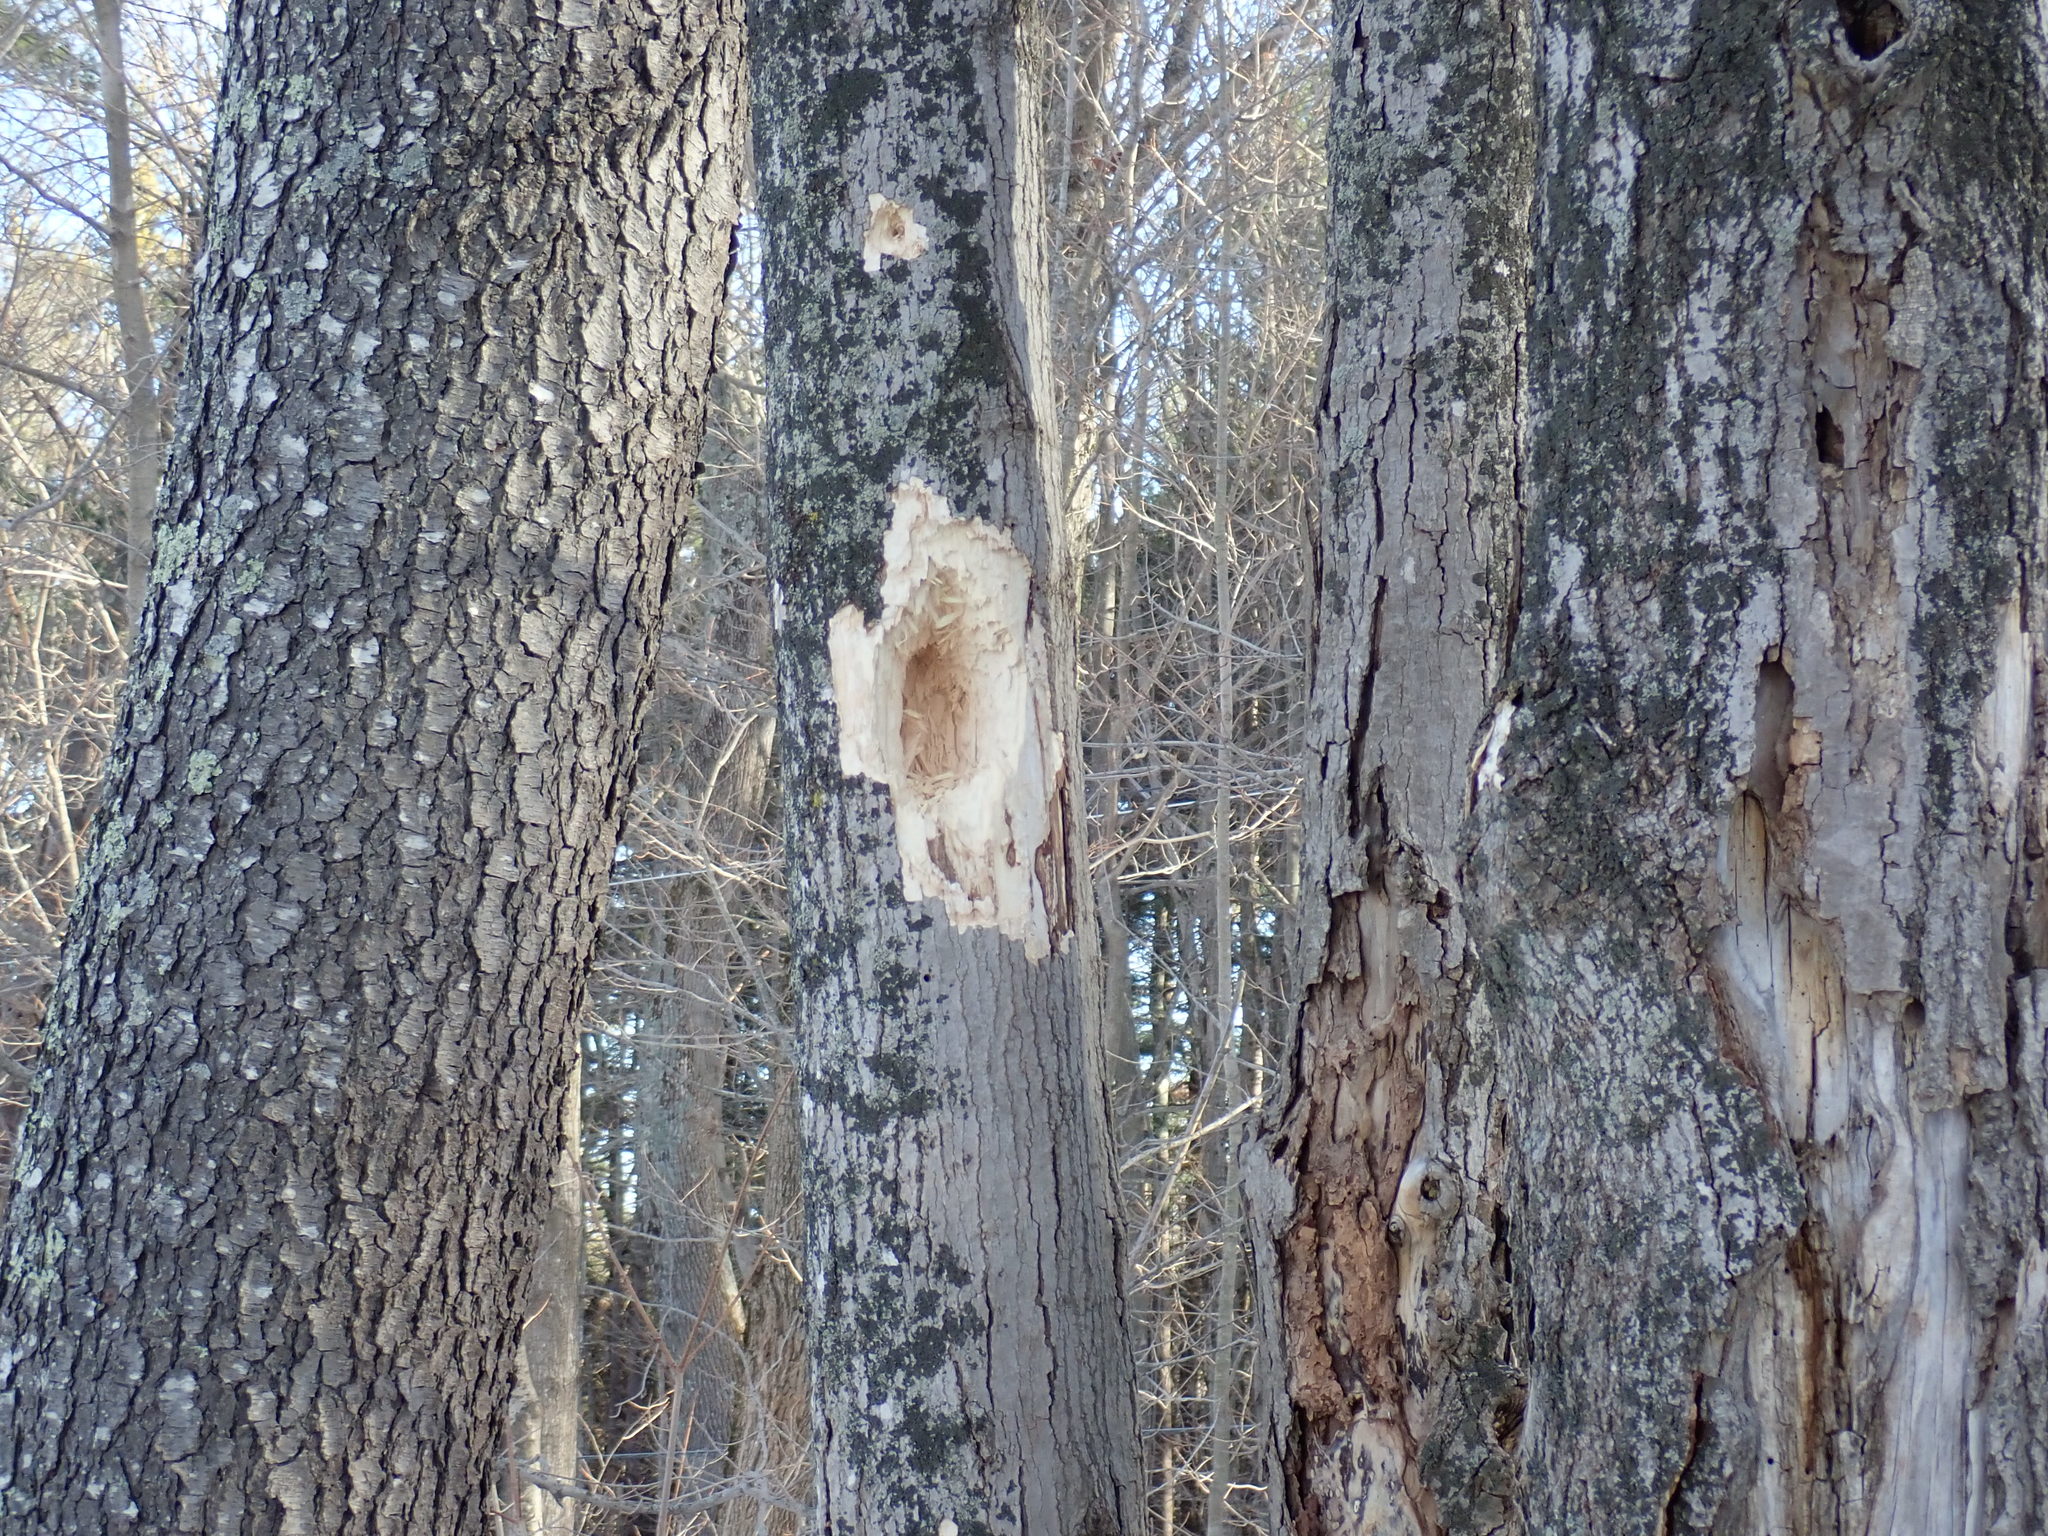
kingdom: Animalia
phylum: Chordata
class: Aves
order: Piciformes
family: Picidae
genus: Dryocopus
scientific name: Dryocopus pileatus
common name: Pileated woodpecker
